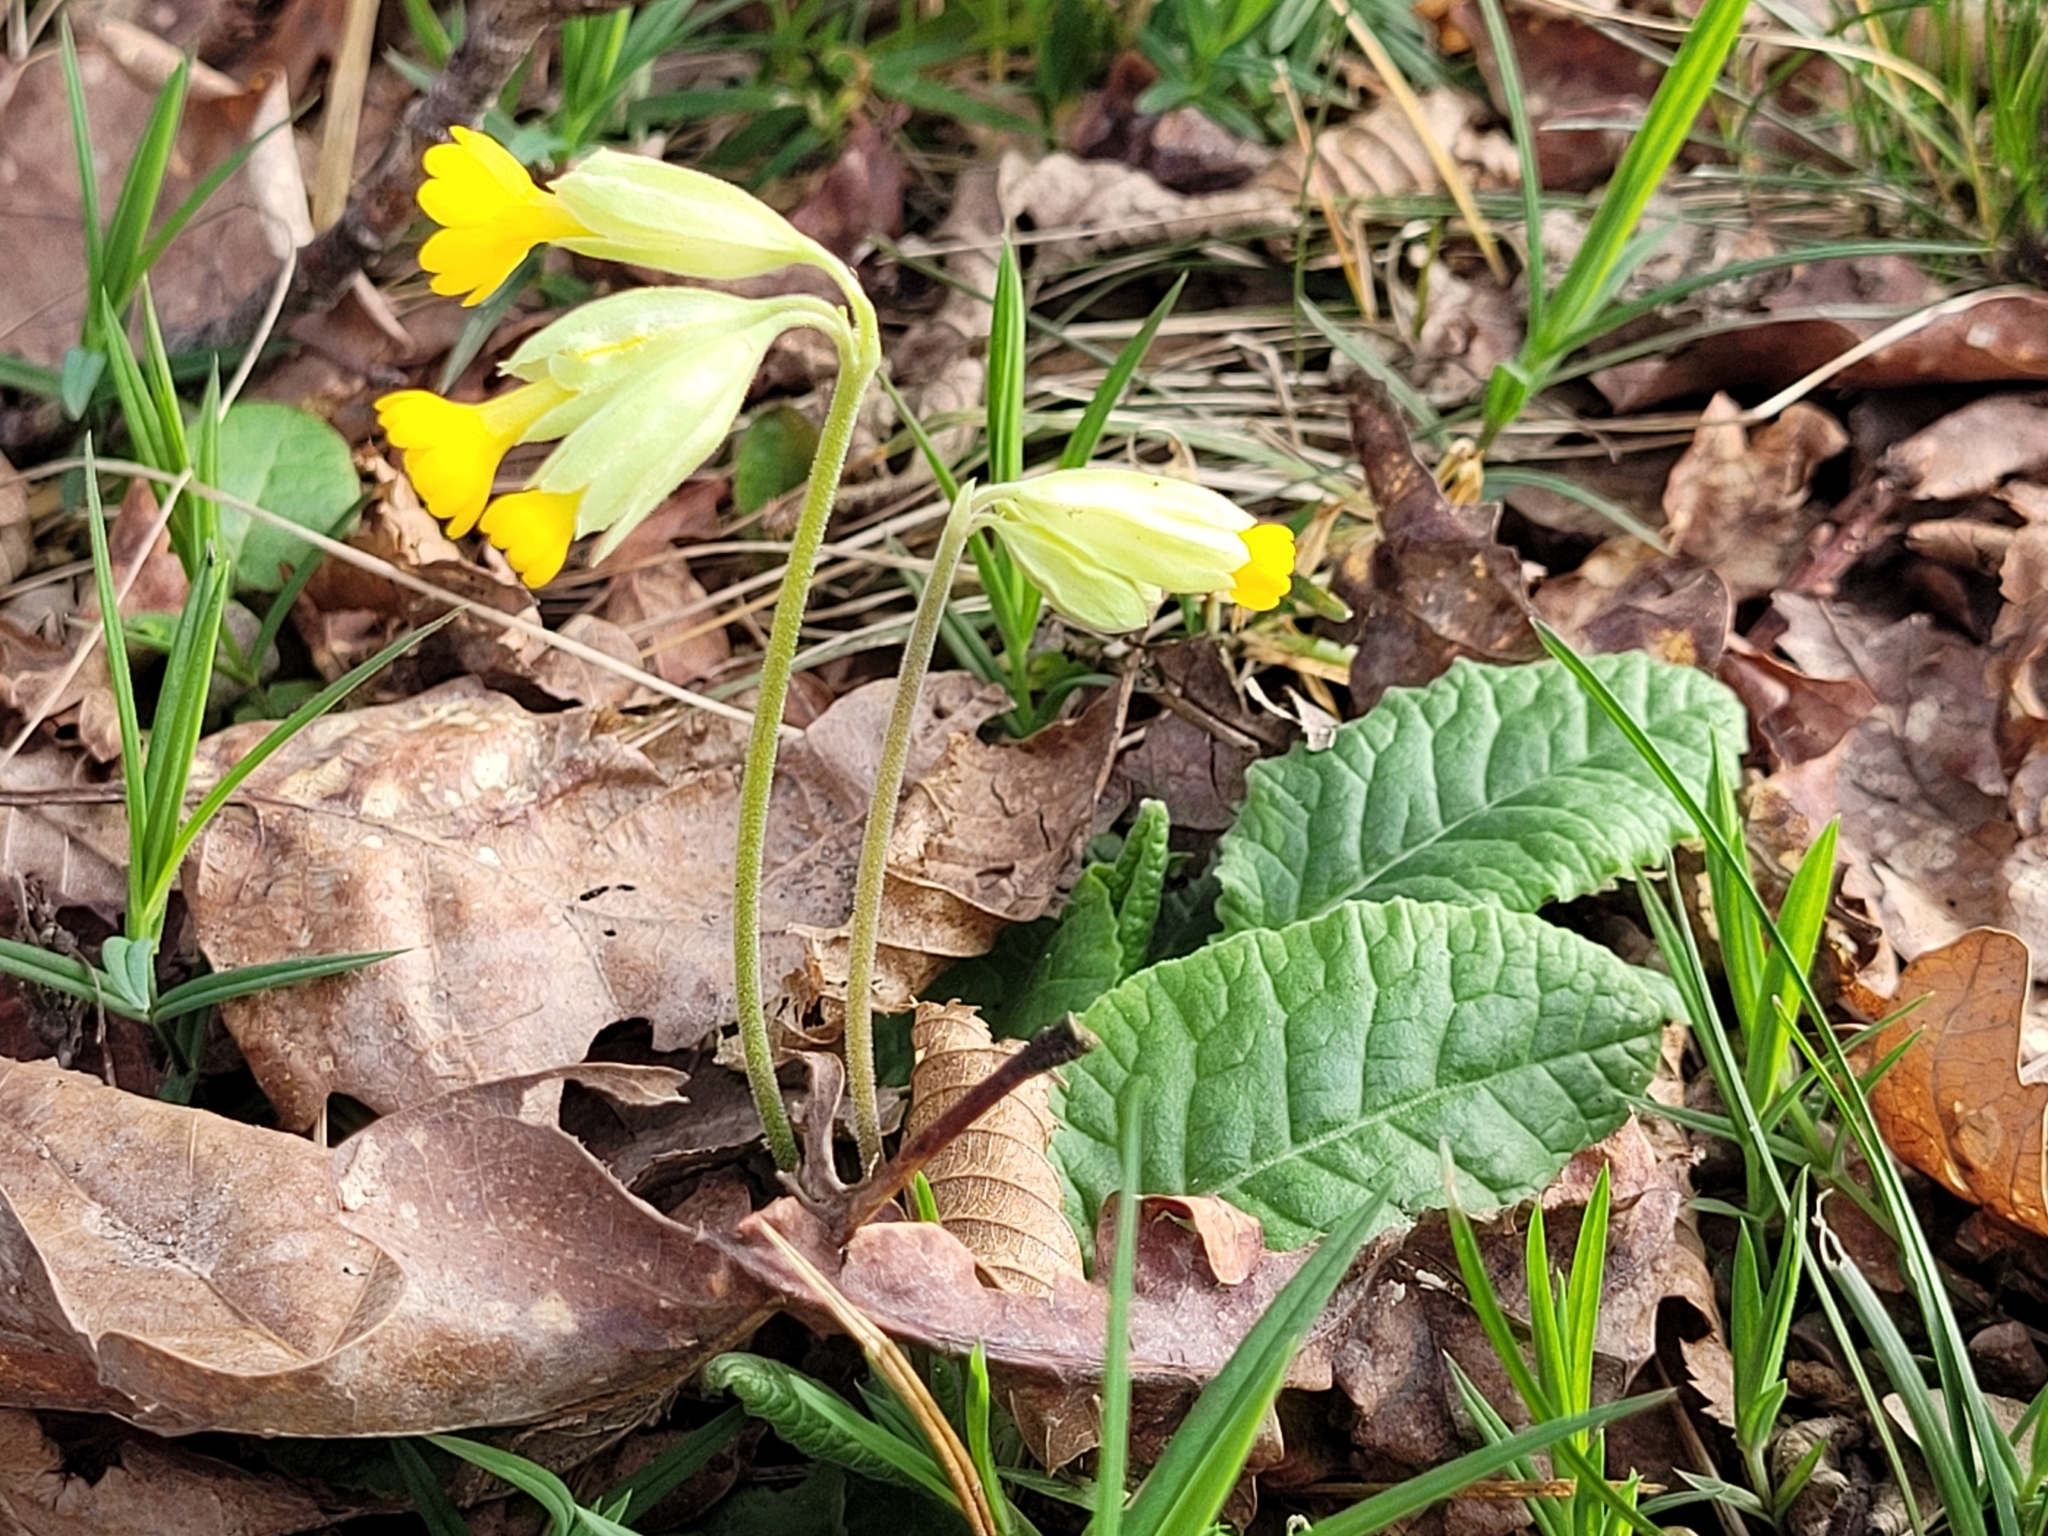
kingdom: Plantae
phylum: Tracheophyta
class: Magnoliopsida
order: Ericales
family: Primulaceae
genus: Primula
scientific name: Primula veris
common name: Cowslip
